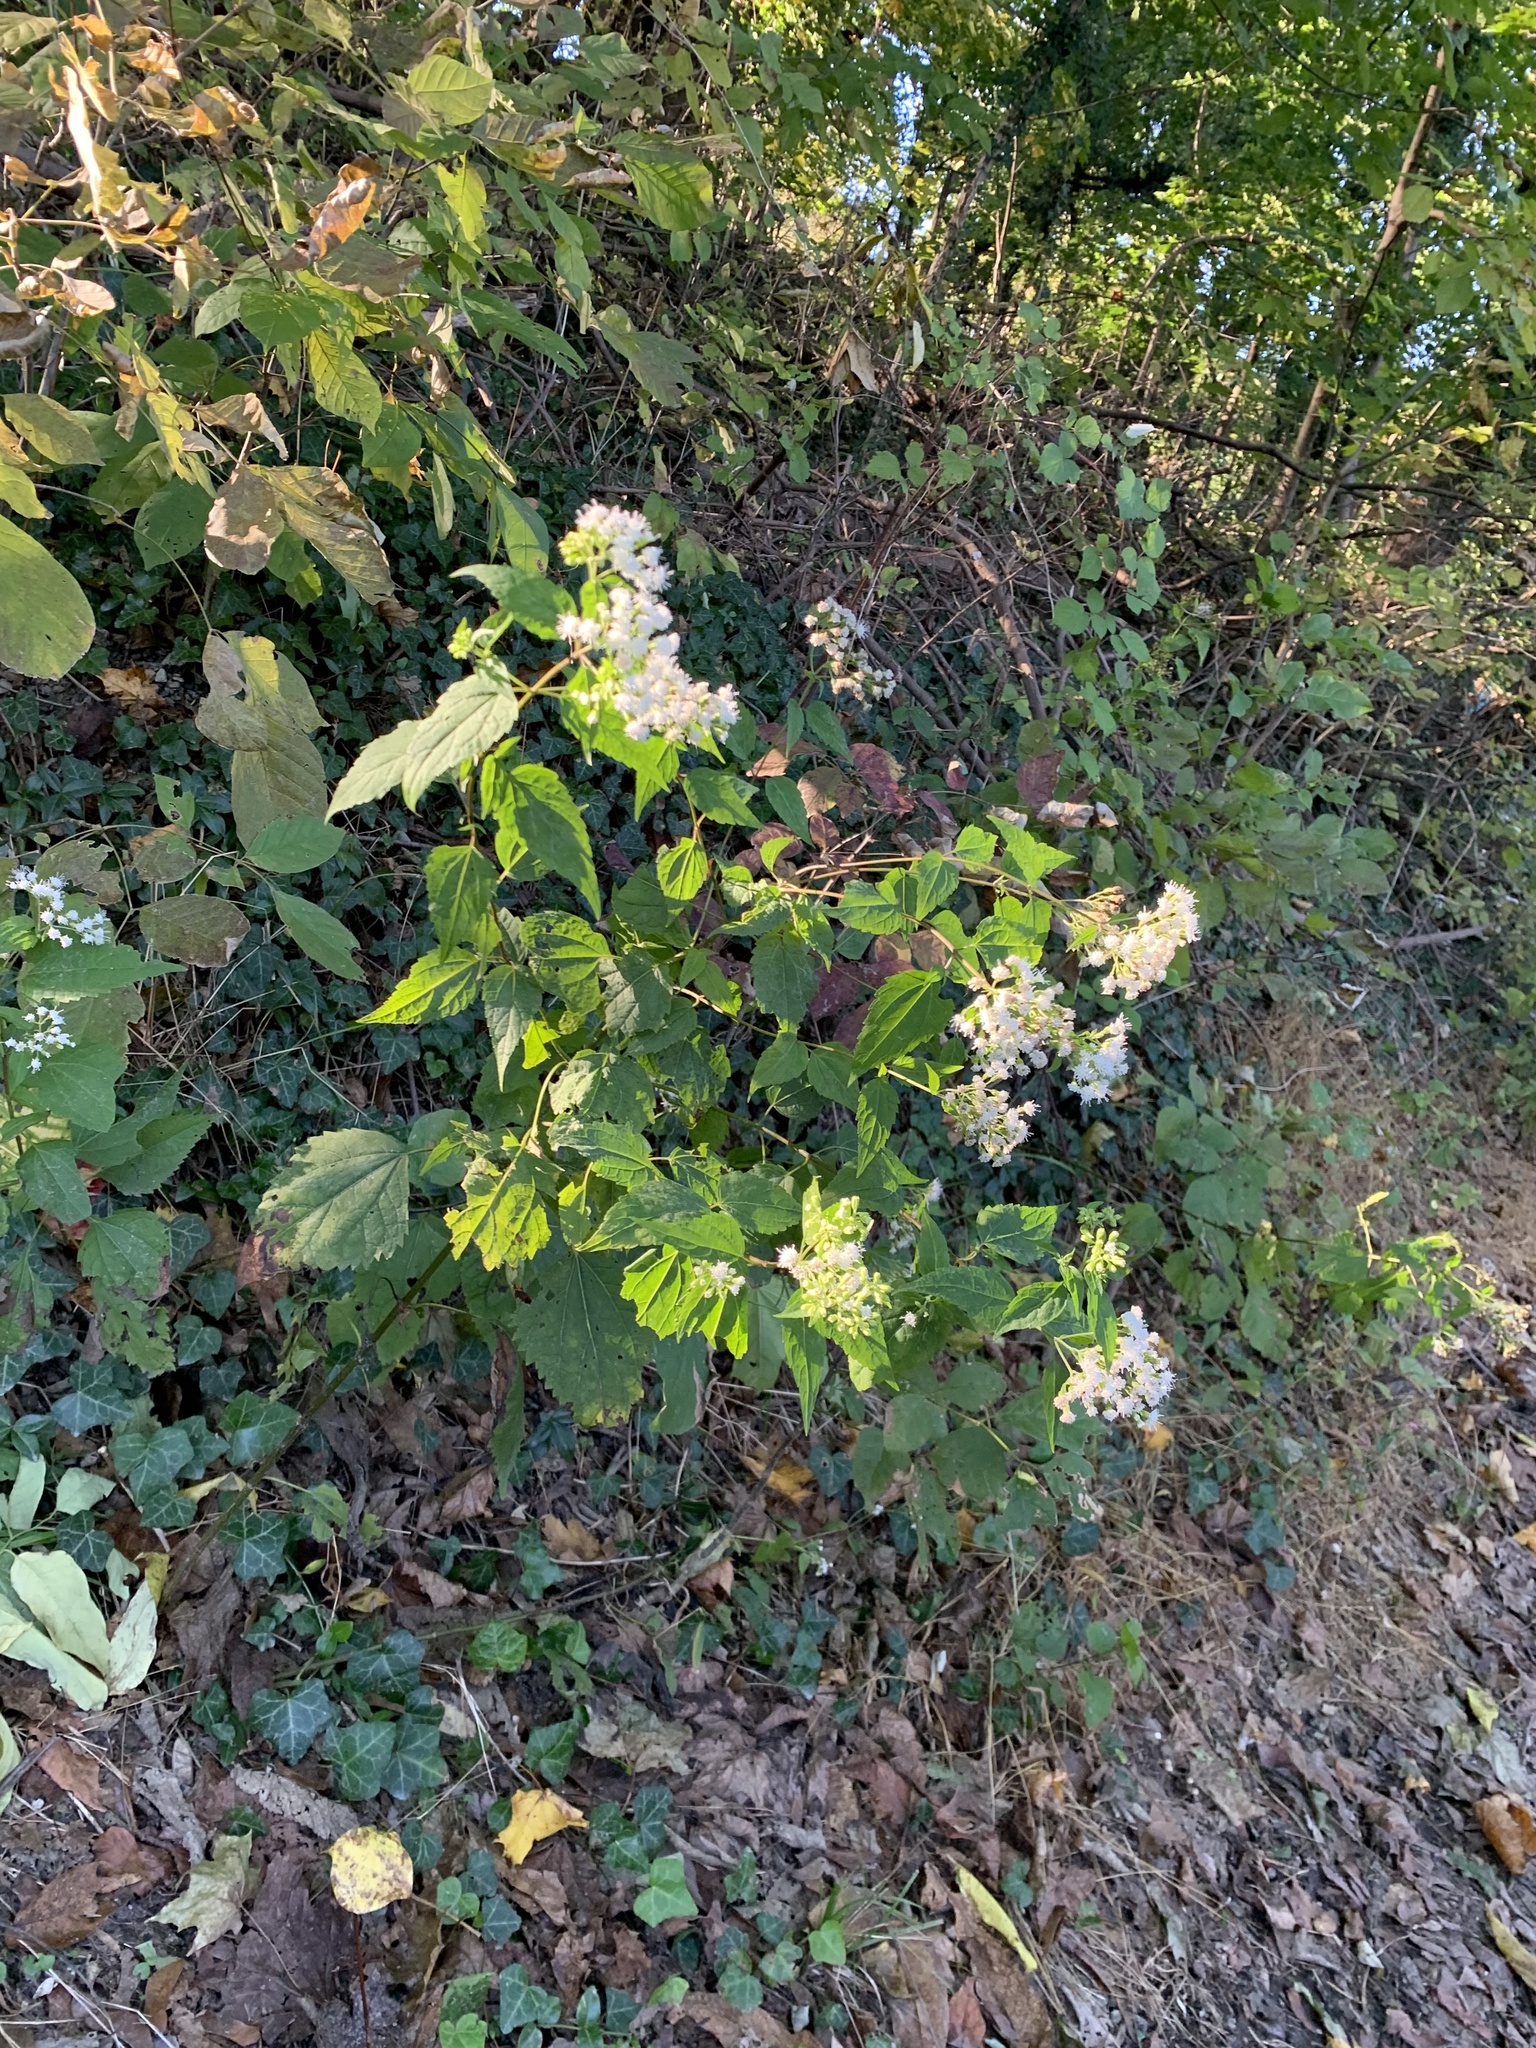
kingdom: Plantae
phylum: Tracheophyta
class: Magnoliopsida
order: Asterales
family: Asteraceae
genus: Ageratina
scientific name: Ageratina altissima
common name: White snakeroot
